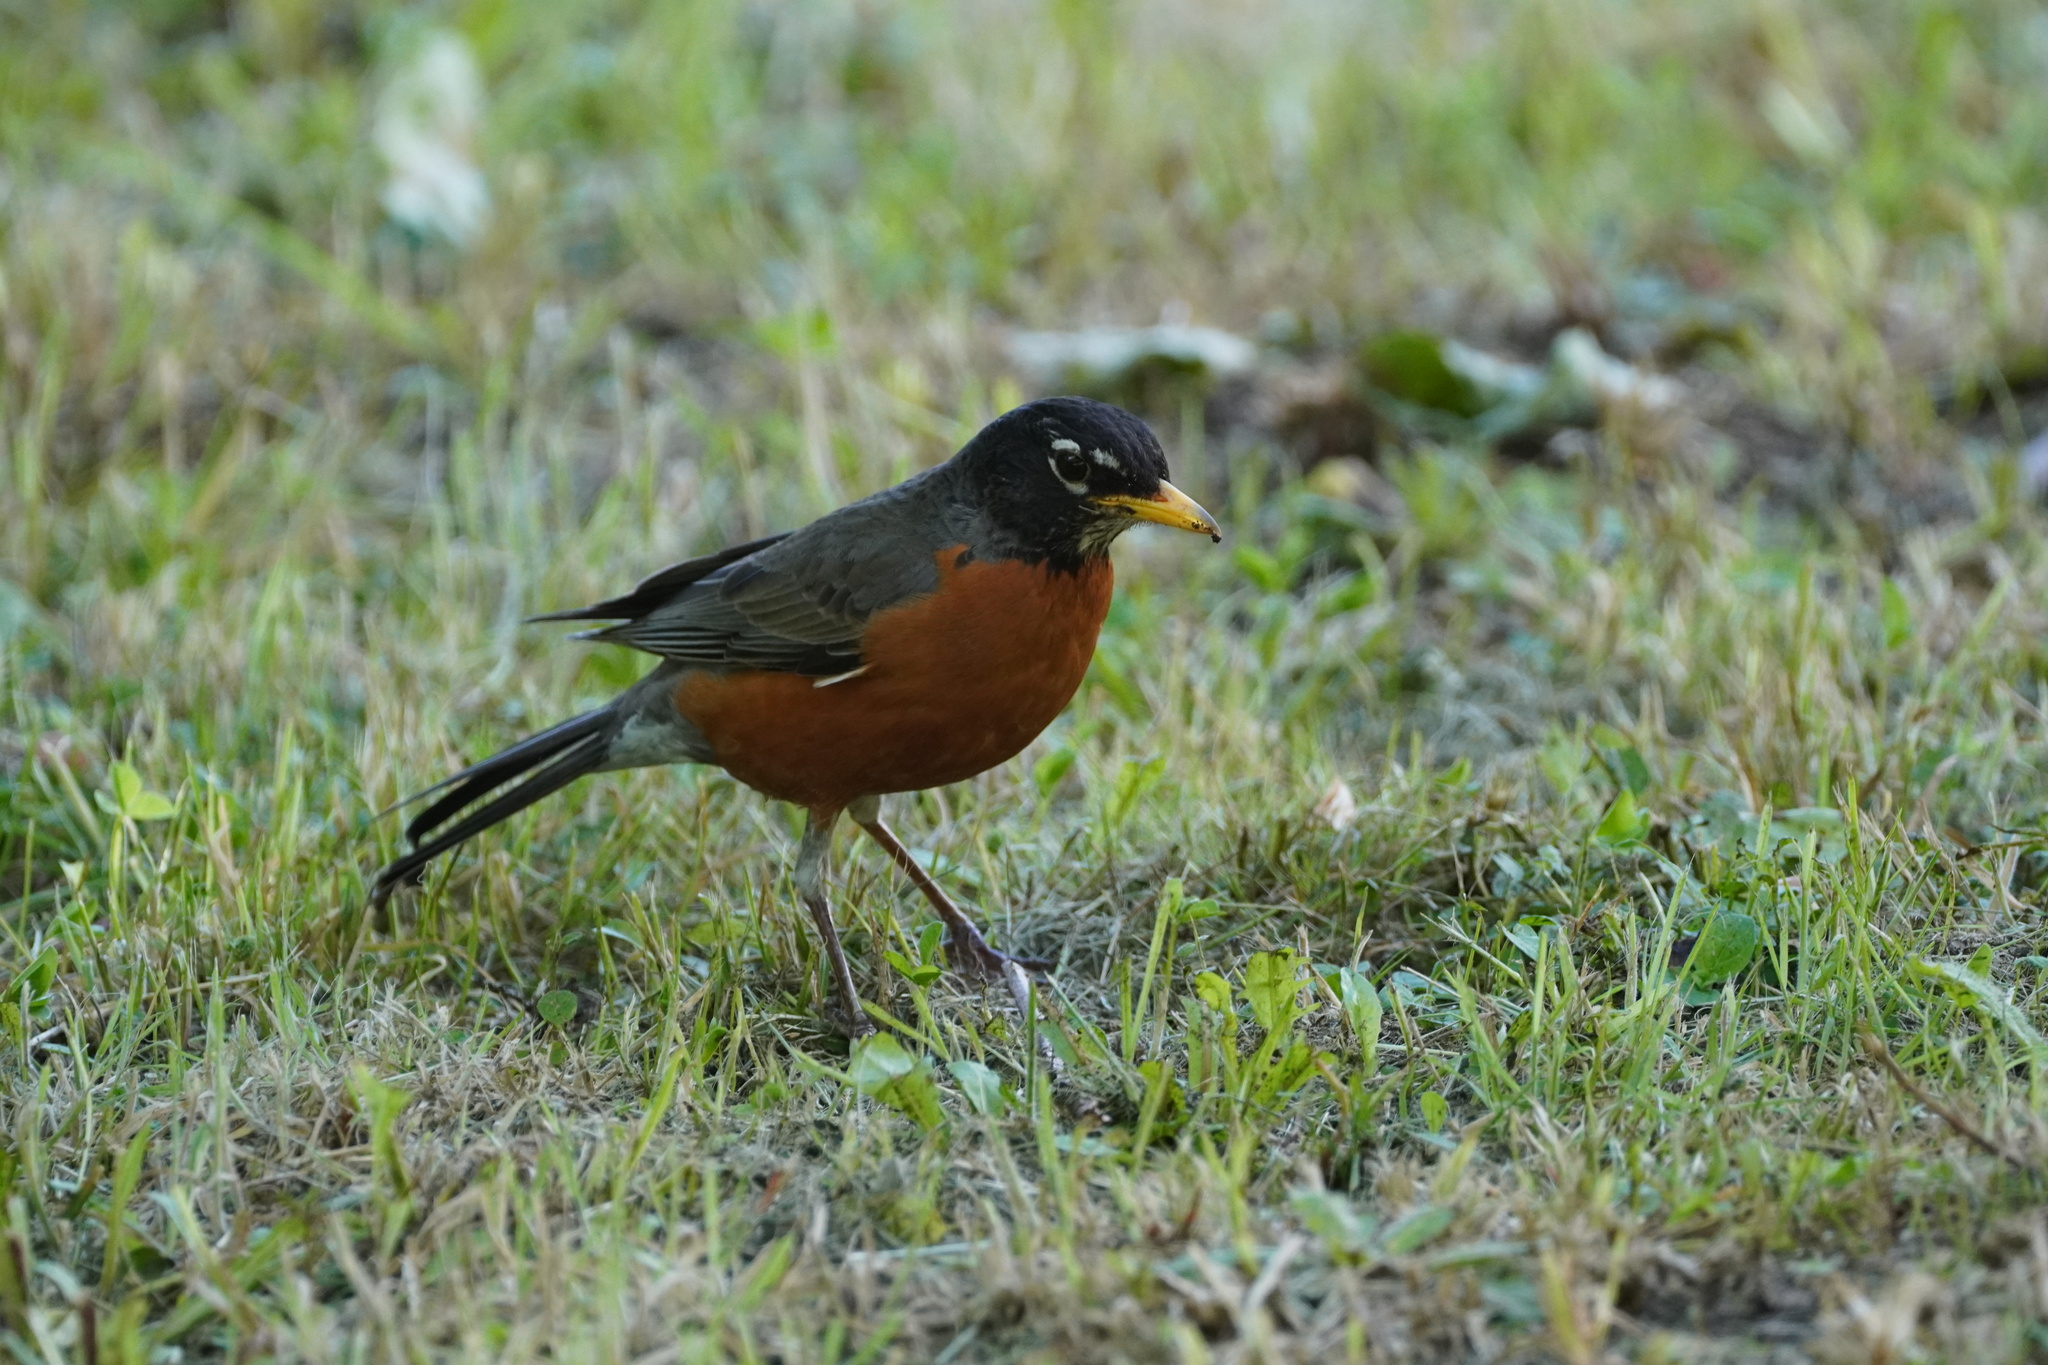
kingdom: Animalia
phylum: Chordata
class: Aves
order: Passeriformes
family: Turdidae
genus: Turdus
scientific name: Turdus migratorius
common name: American robin
